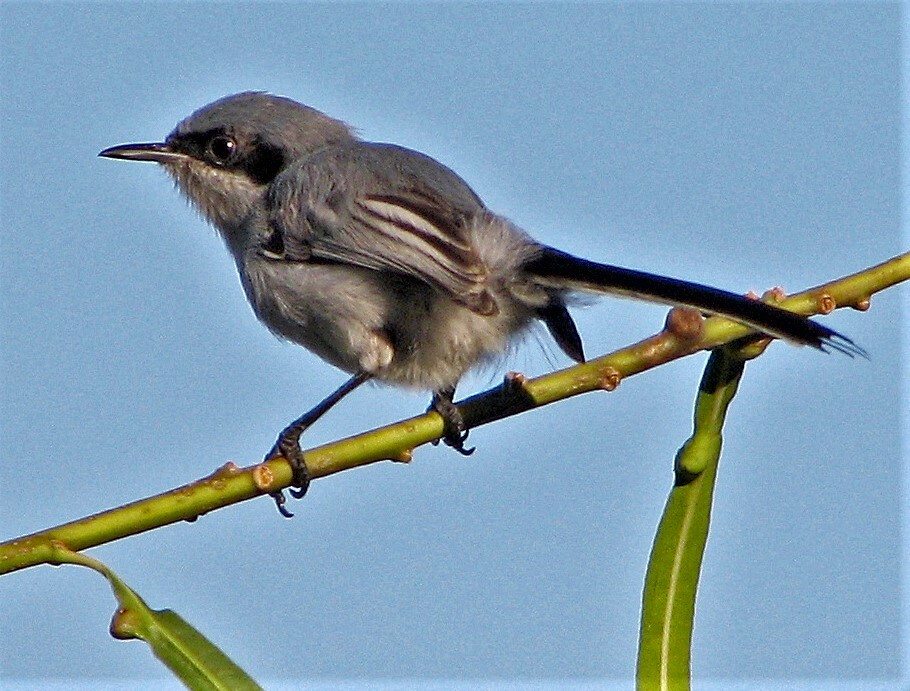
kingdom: Animalia
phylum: Chordata
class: Aves
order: Passeriformes
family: Polioptilidae
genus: Polioptila
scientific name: Polioptila dumicola
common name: Masked gnatcatcher
